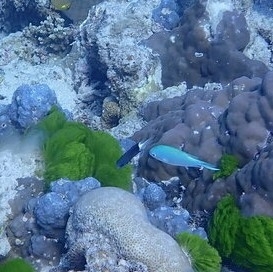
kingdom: Animalia
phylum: Chordata
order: Perciformes
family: Pomacentridae
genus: Pycnochromis
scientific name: Pycnochromis margaritifer
